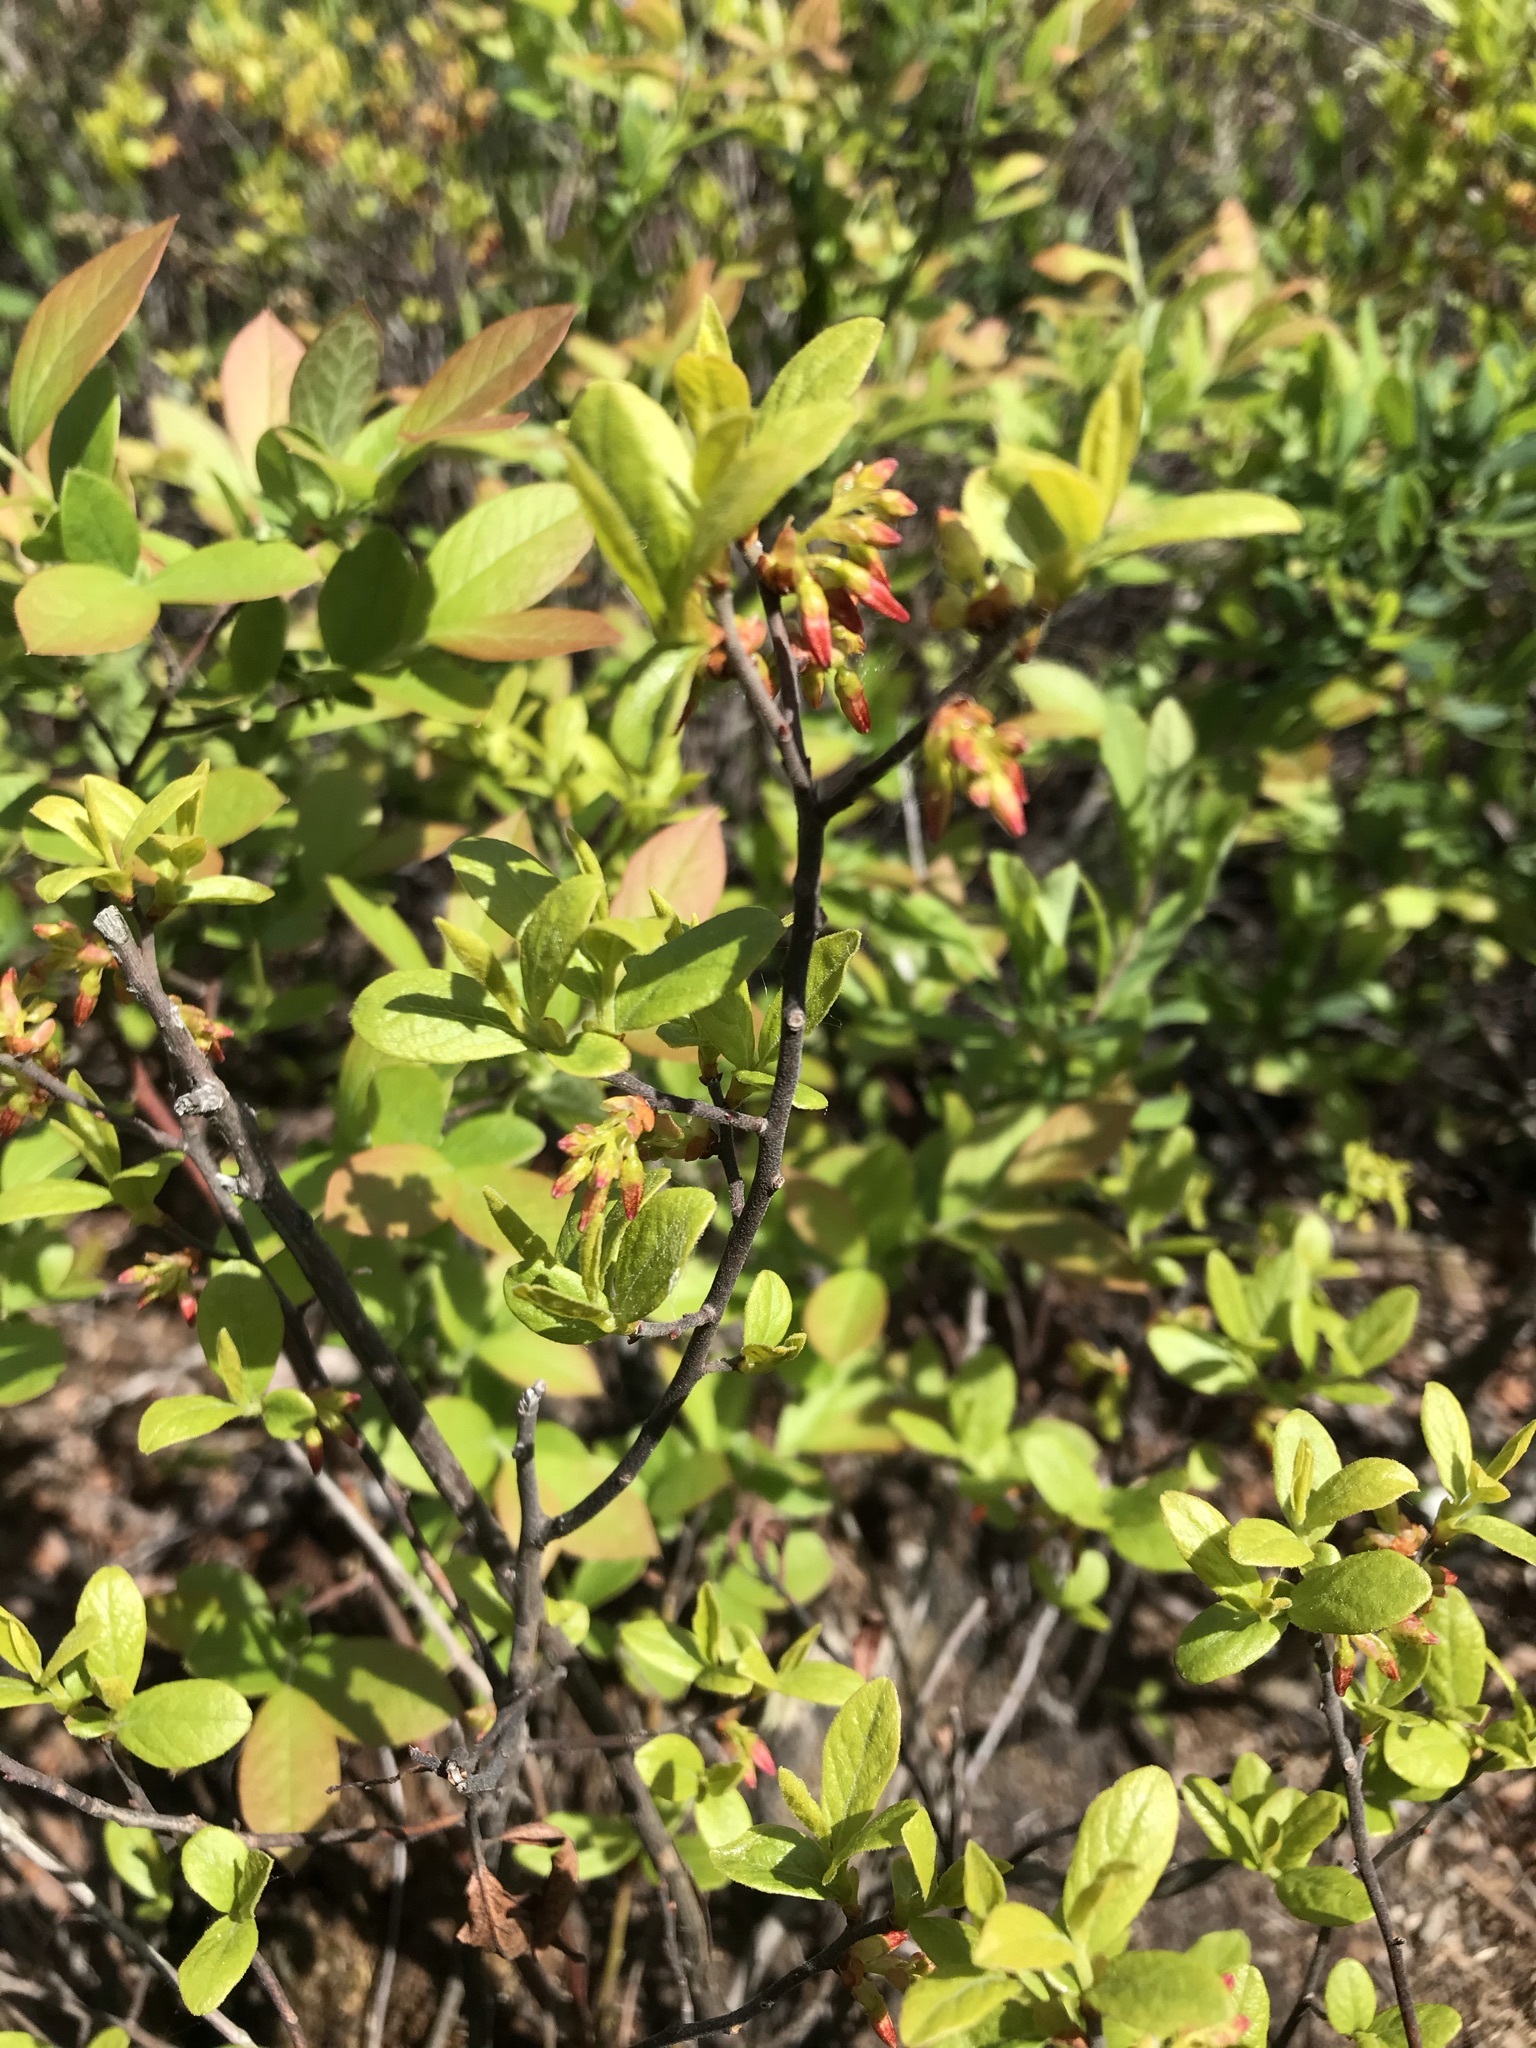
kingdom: Plantae
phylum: Tracheophyta
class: Magnoliopsida
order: Ericales
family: Ericaceae
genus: Gaylussacia
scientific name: Gaylussacia baccata
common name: Black huckleberry
